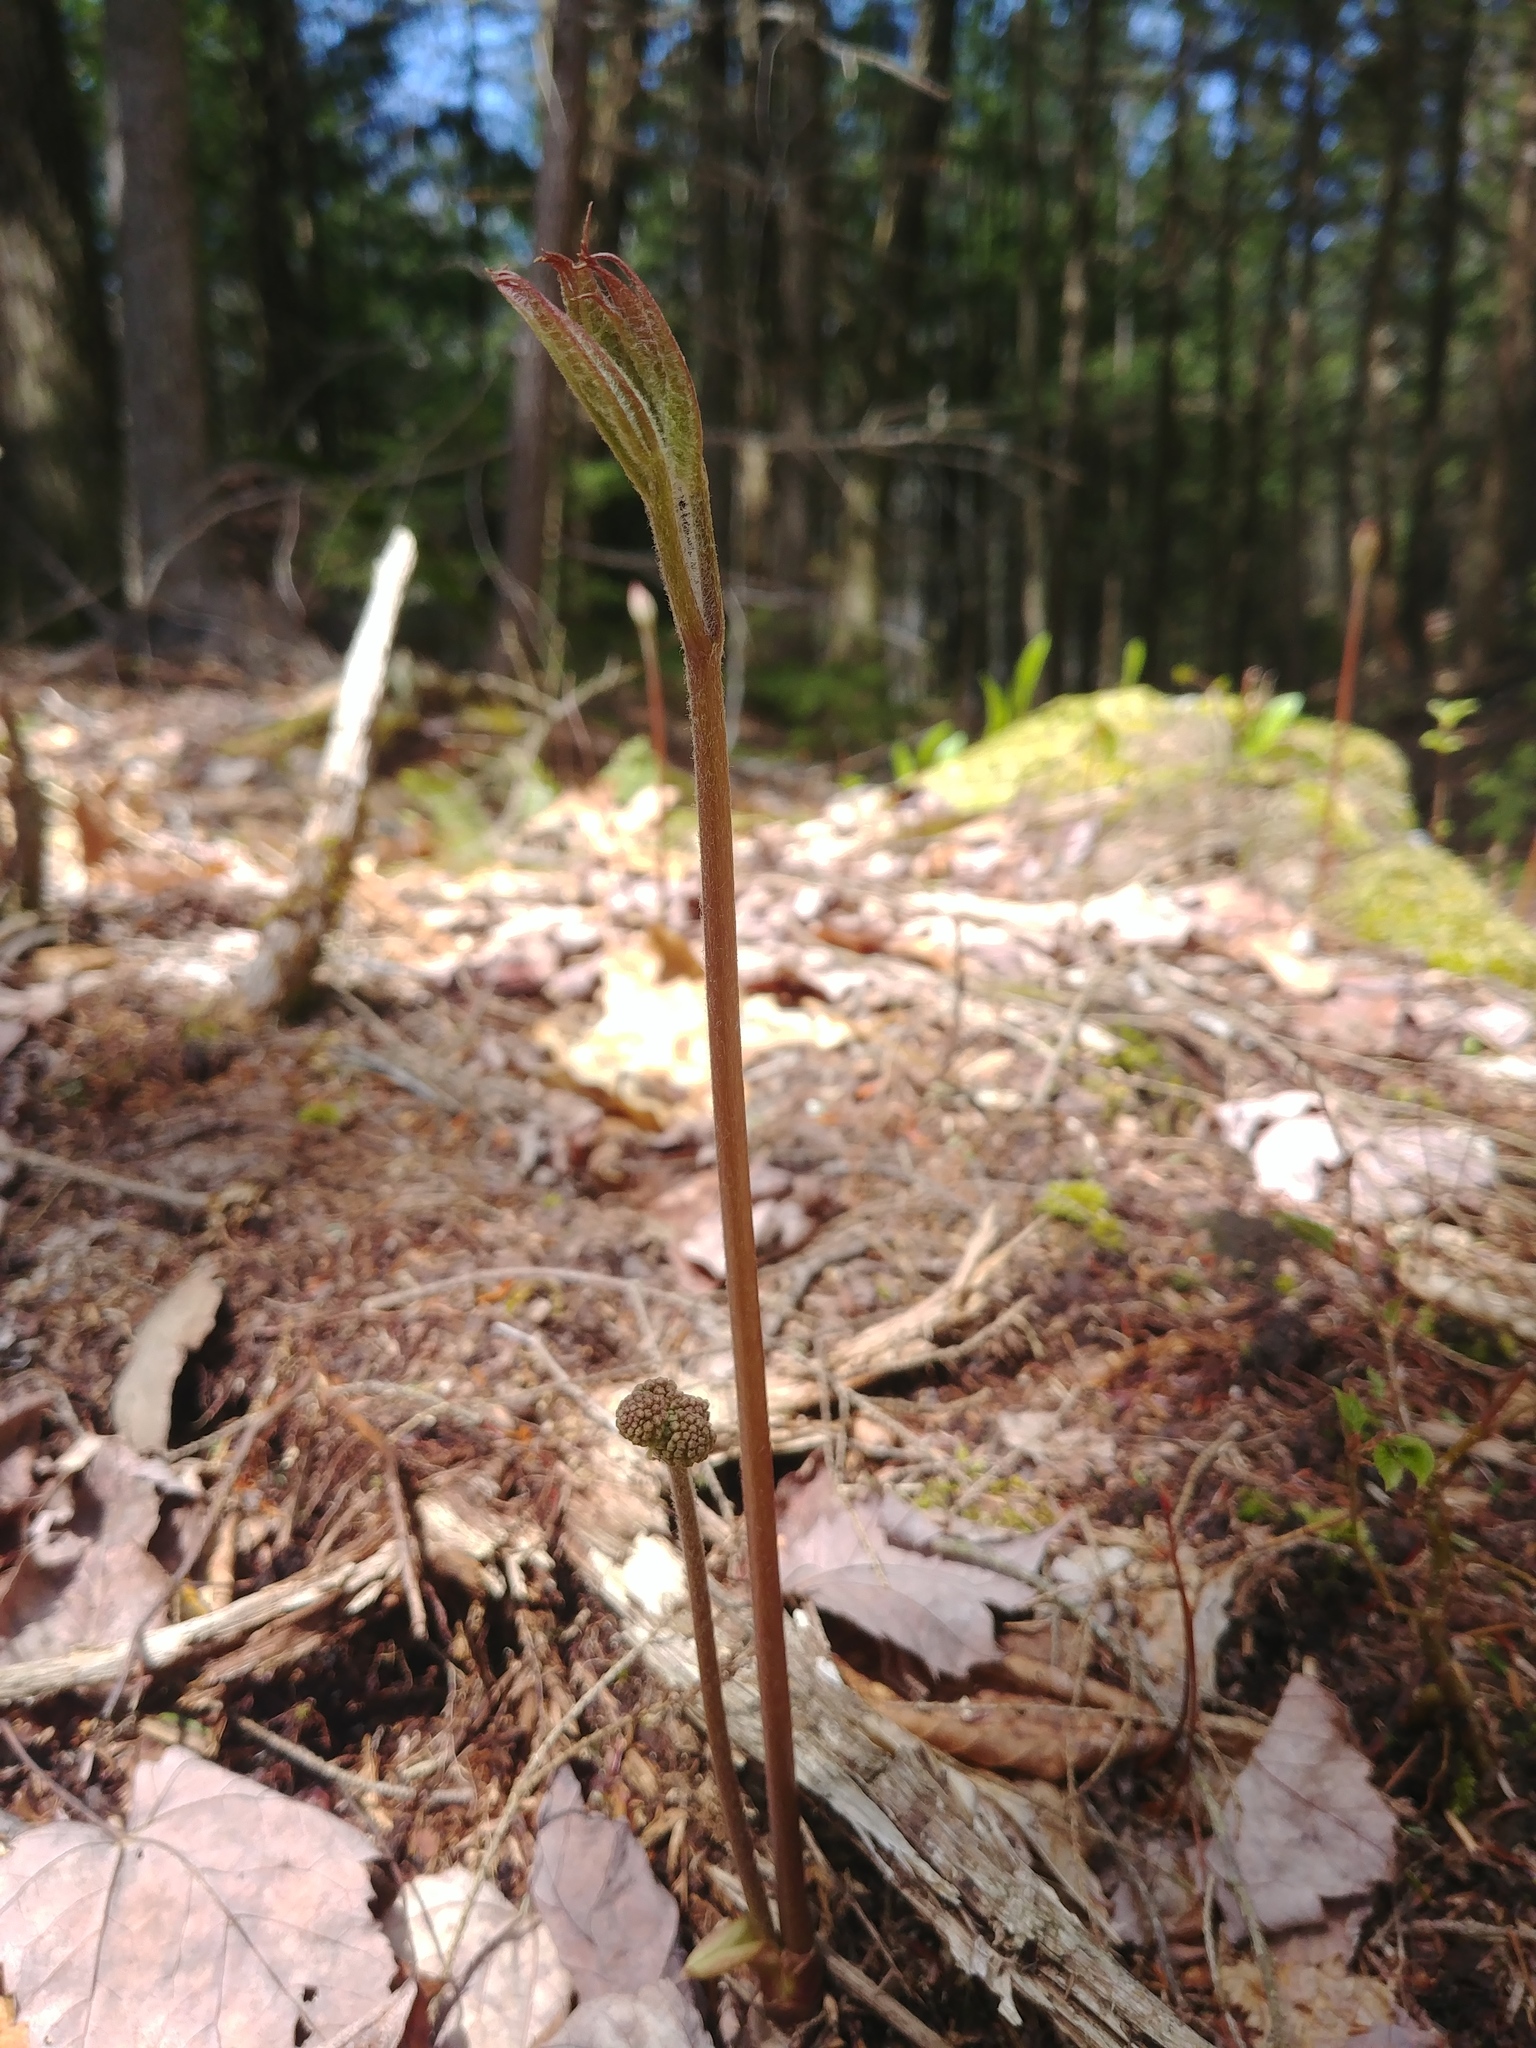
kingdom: Plantae
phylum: Tracheophyta
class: Magnoliopsida
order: Apiales
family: Araliaceae
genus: Aralia
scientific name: Aralia nudicaulis
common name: Wild sarsaparilla
